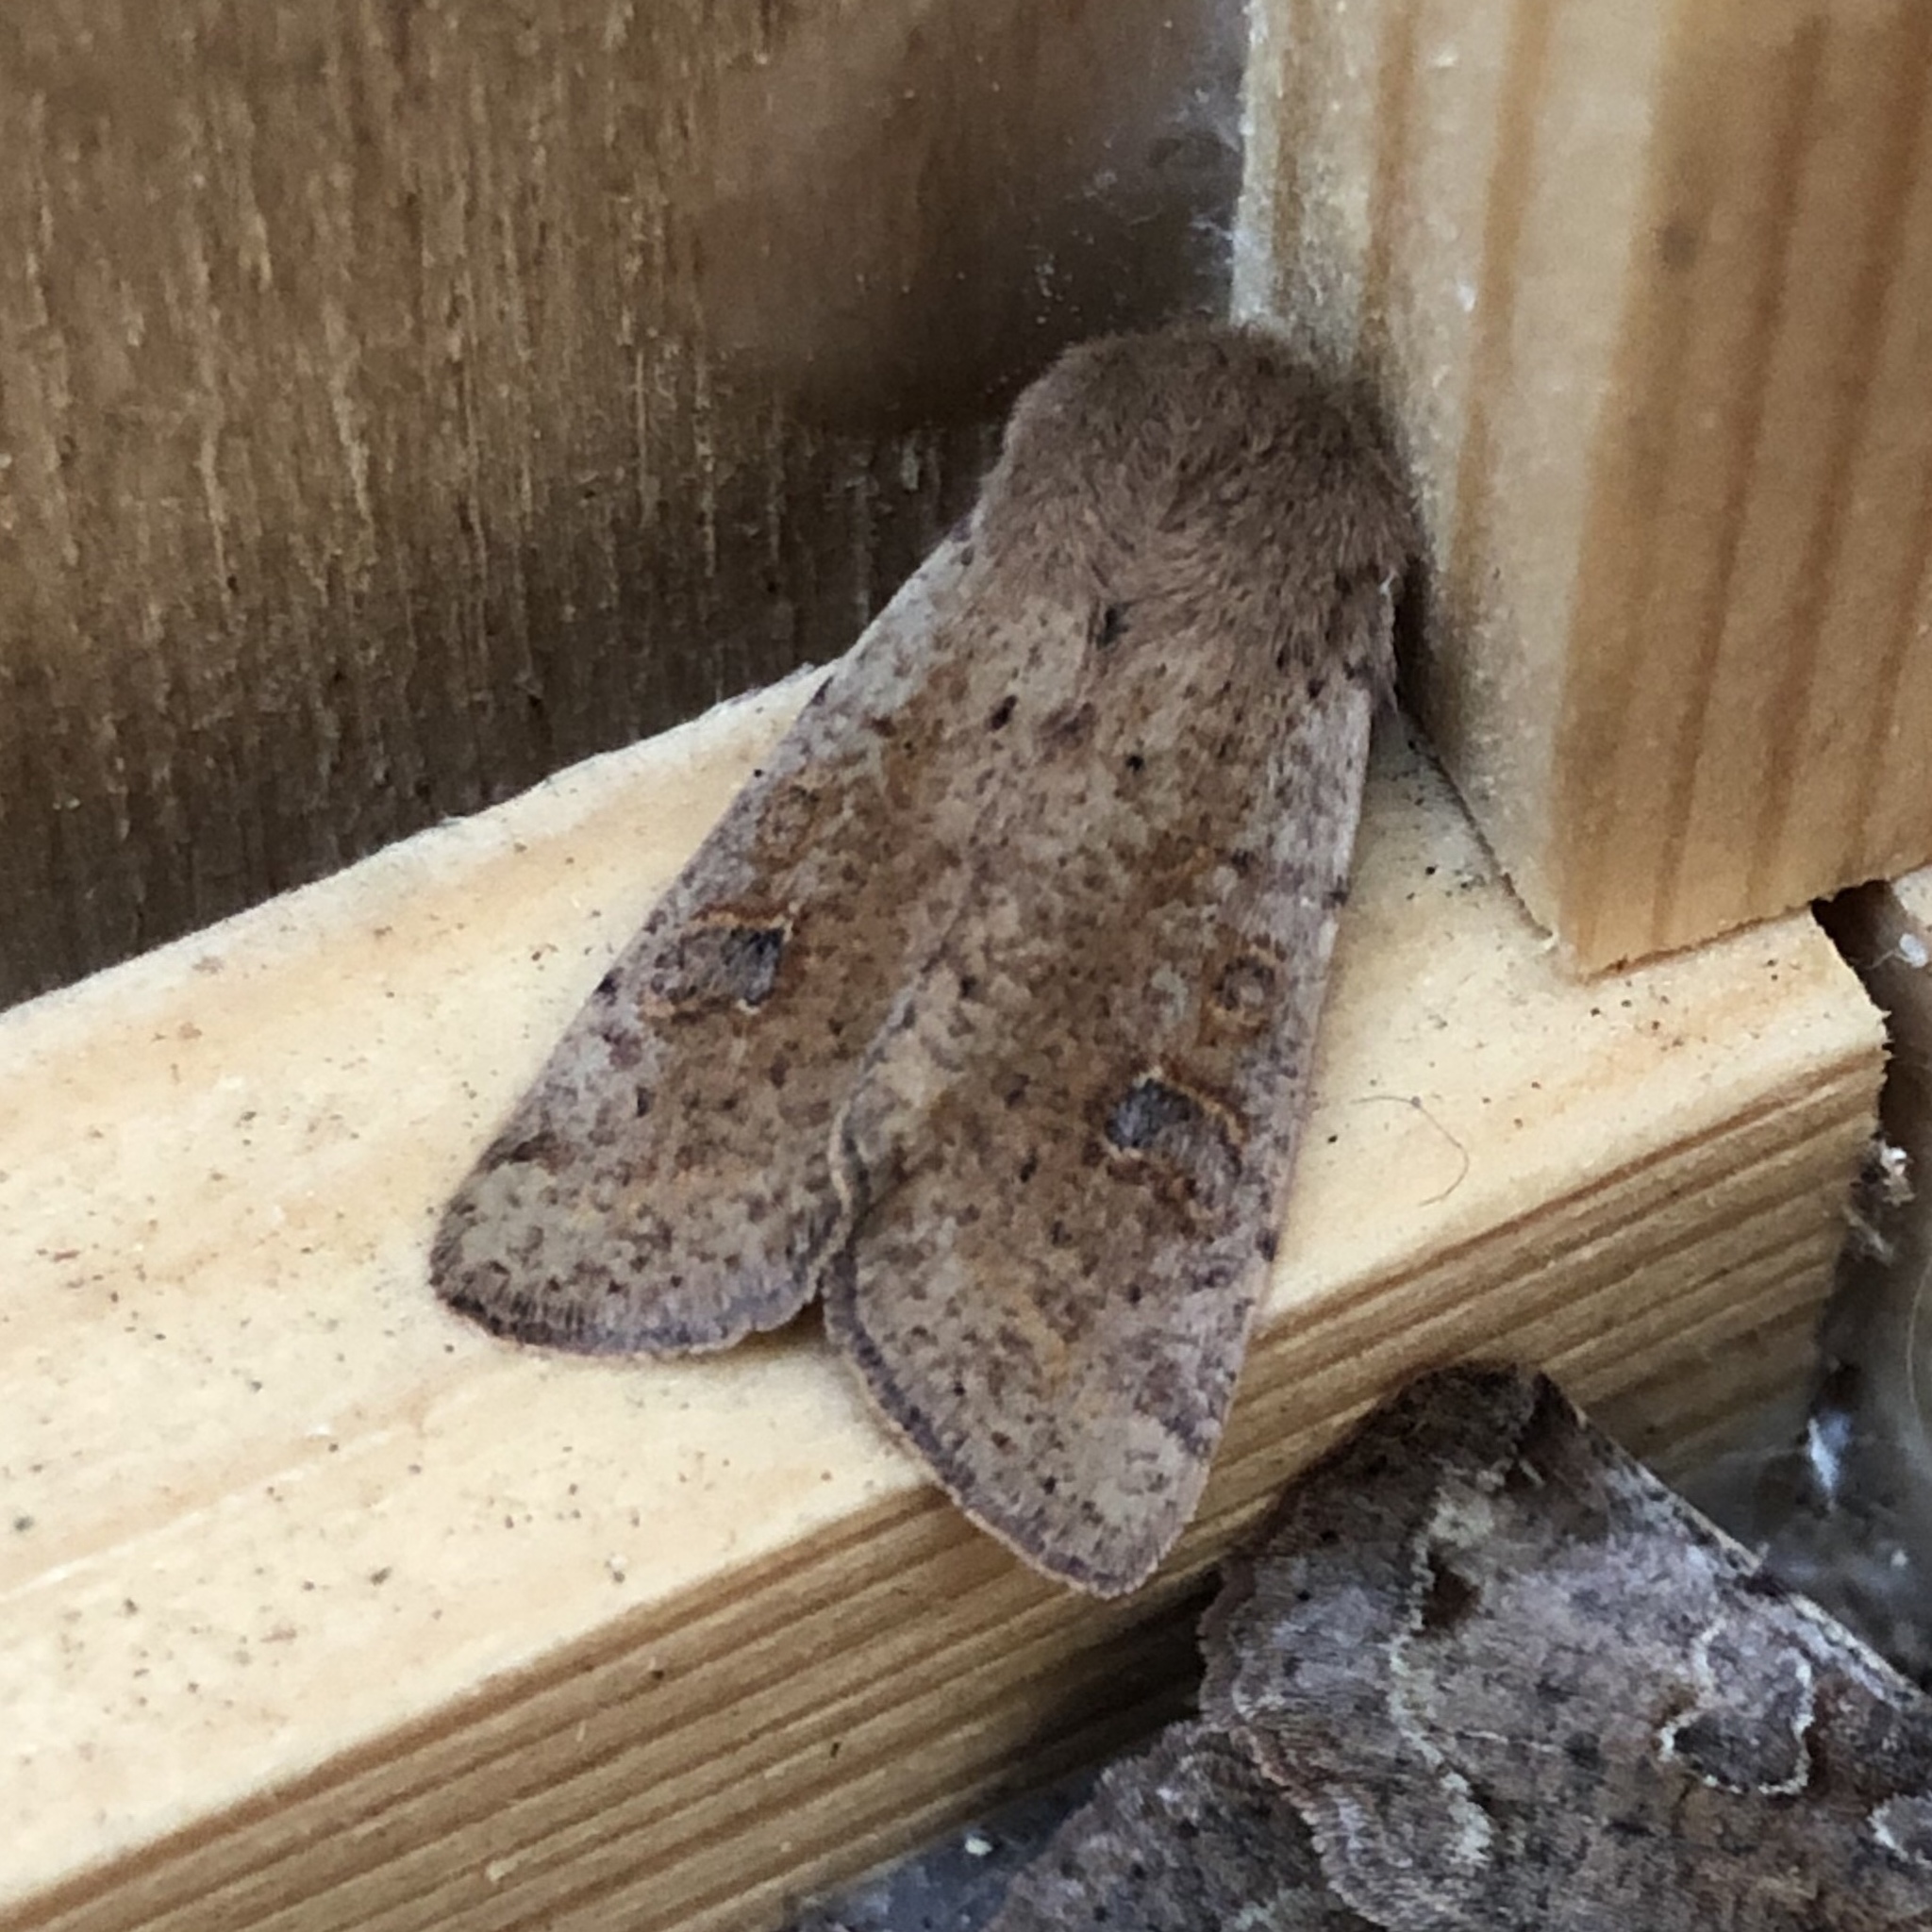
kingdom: Animalia
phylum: Arthropoda
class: Insecta
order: Lepidoptera
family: Noctuidae
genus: Orthosia
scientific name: Orthosia cruda
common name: Small quaker
